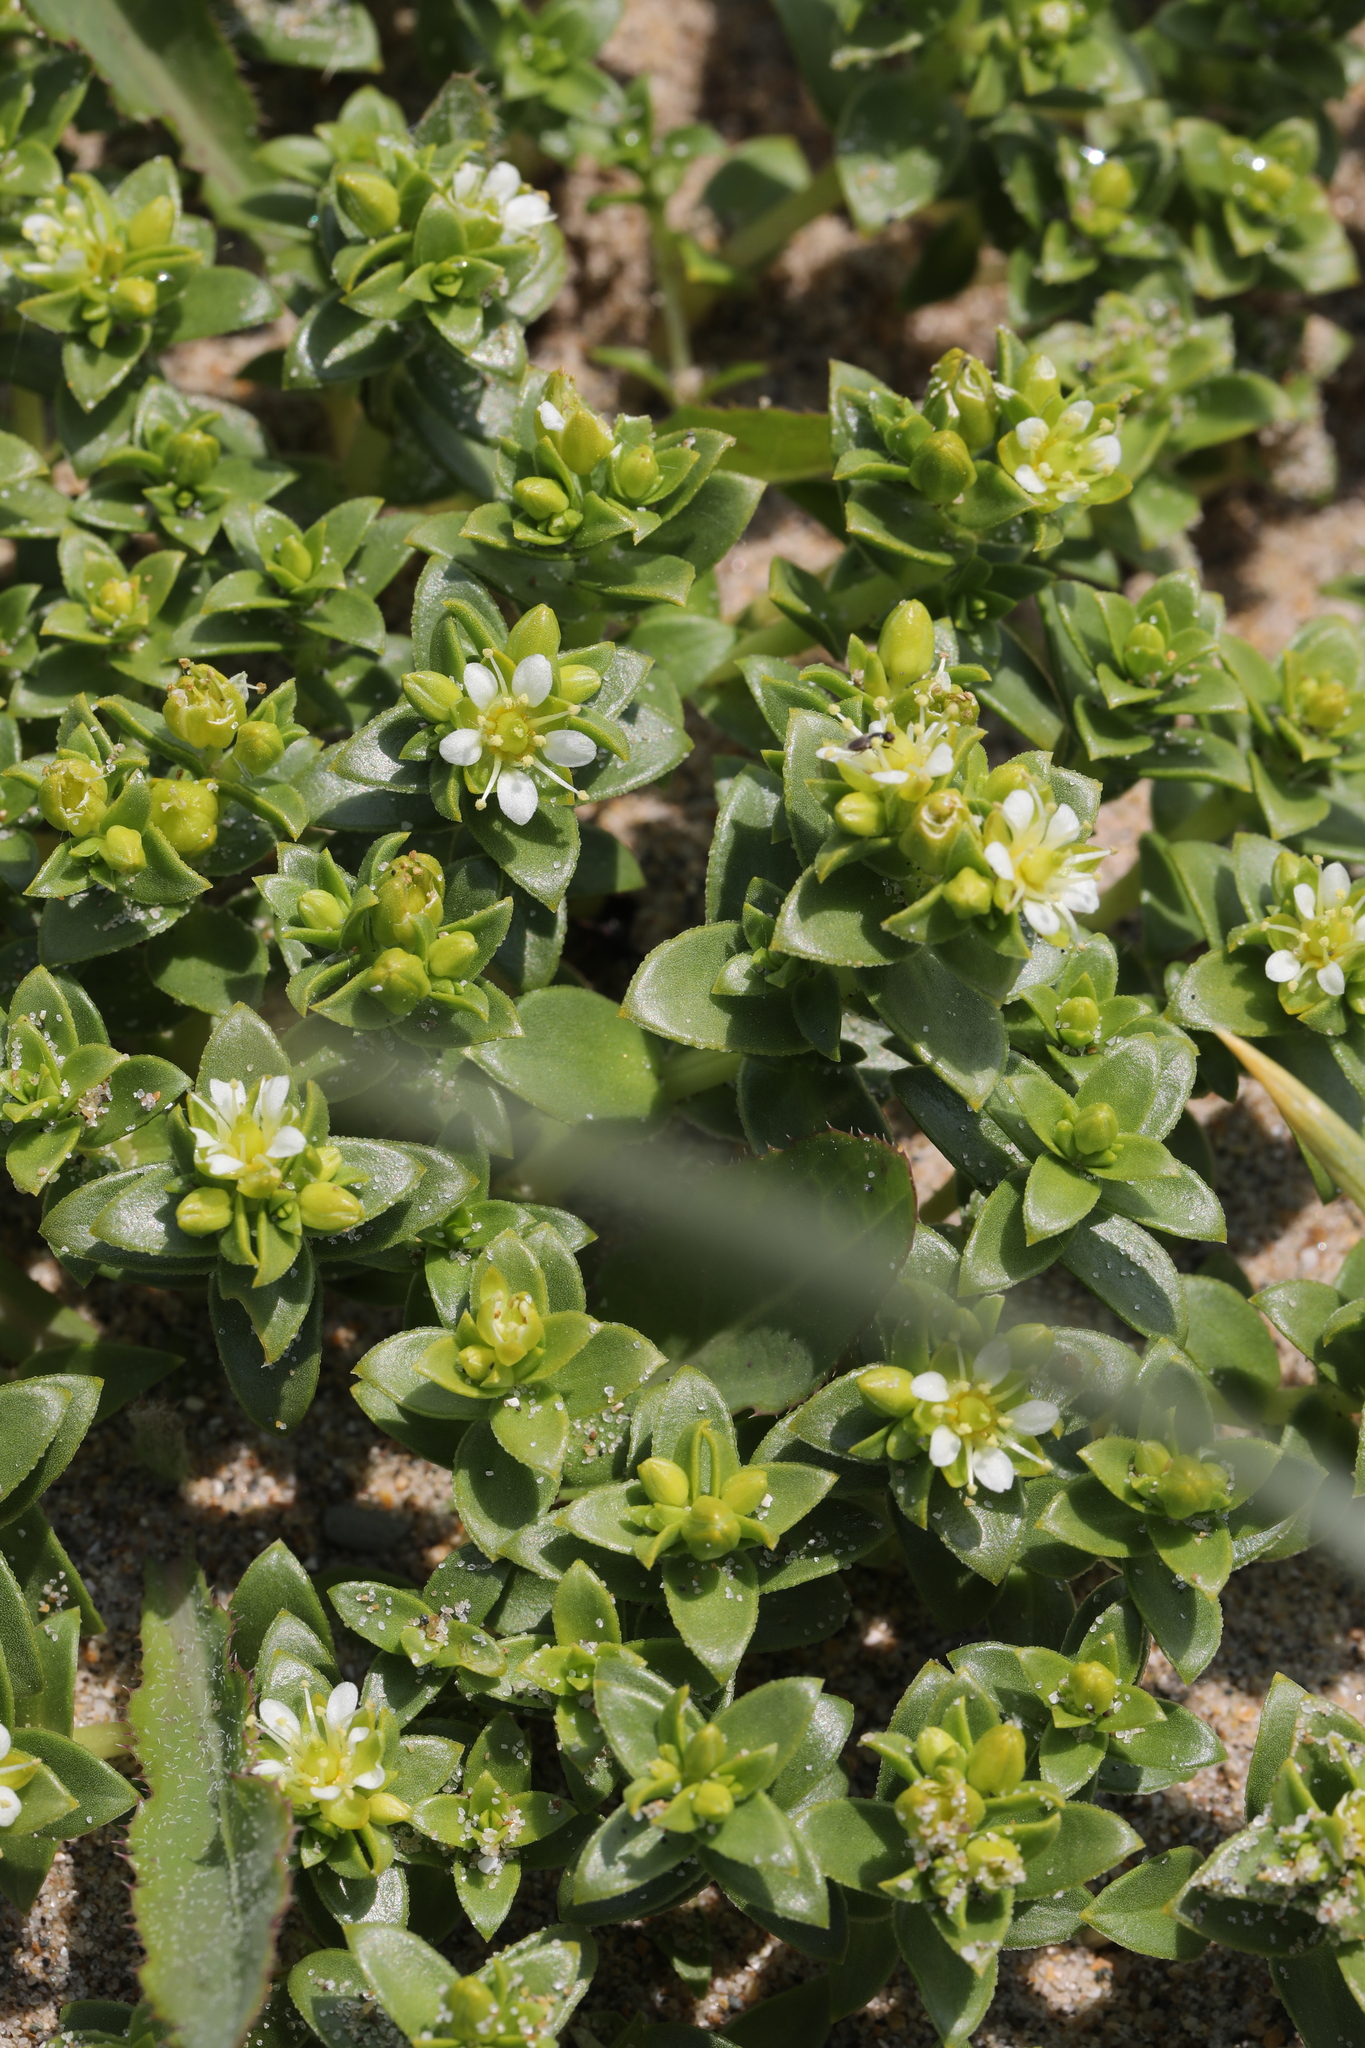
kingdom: Plantae
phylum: Tracheophyta
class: Magnoliopsida
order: Caryophyllales
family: Caryophyllaceae
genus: Honckenya
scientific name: Honckenya peploides
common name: Sea sandwort
